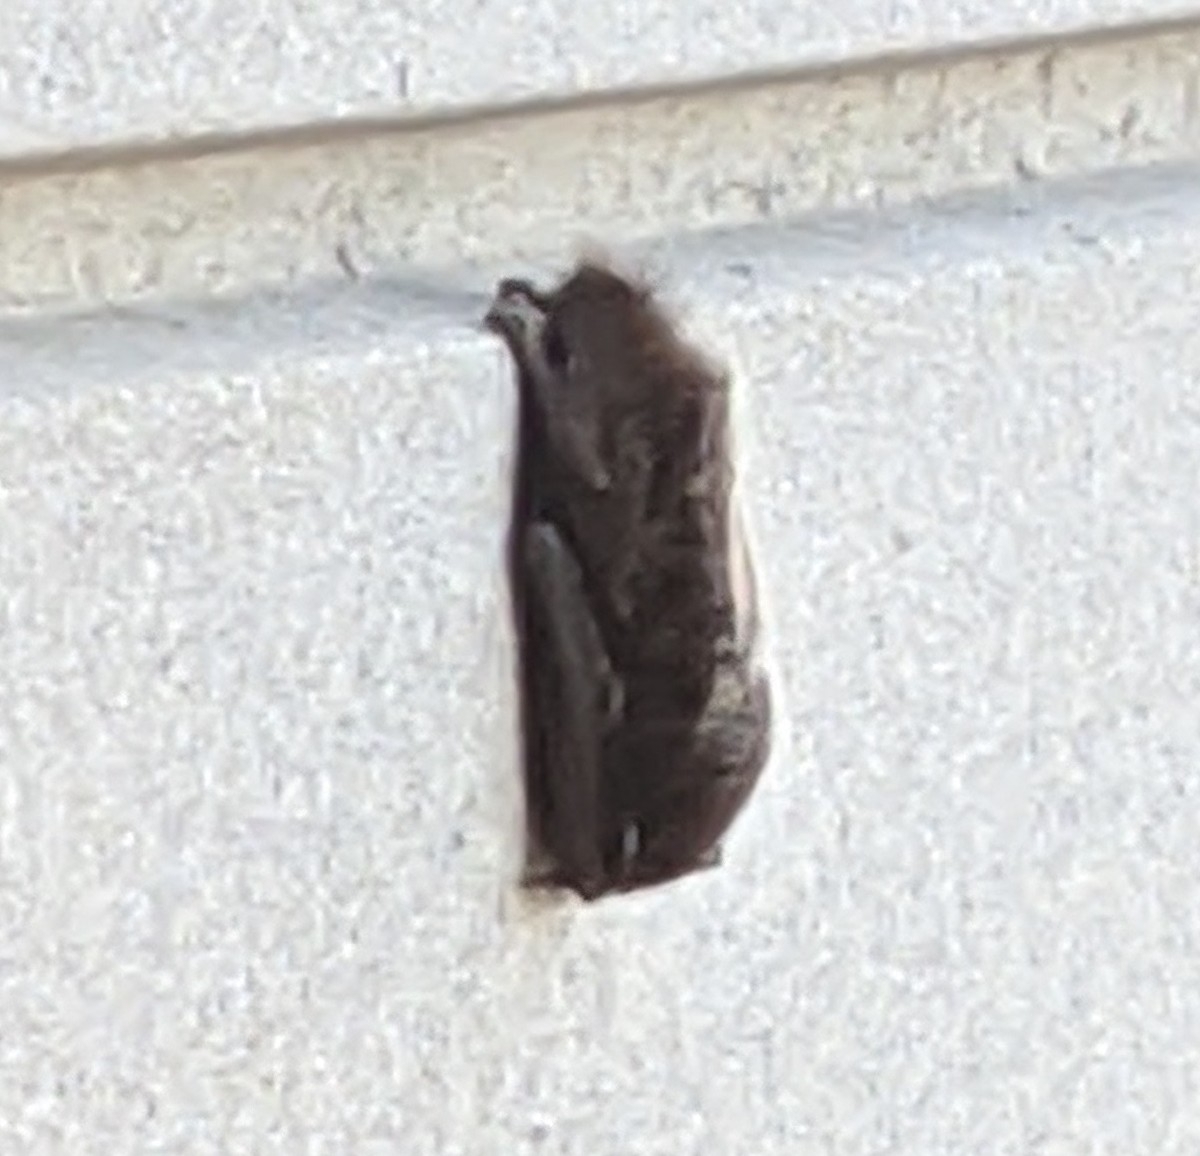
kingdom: Animalia
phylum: Chordata
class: Mammalia
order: Chiroptera
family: Vespertilionidae
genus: Lasionycteris
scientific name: Lasionycteris noctivagans
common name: Silver-haired bat
